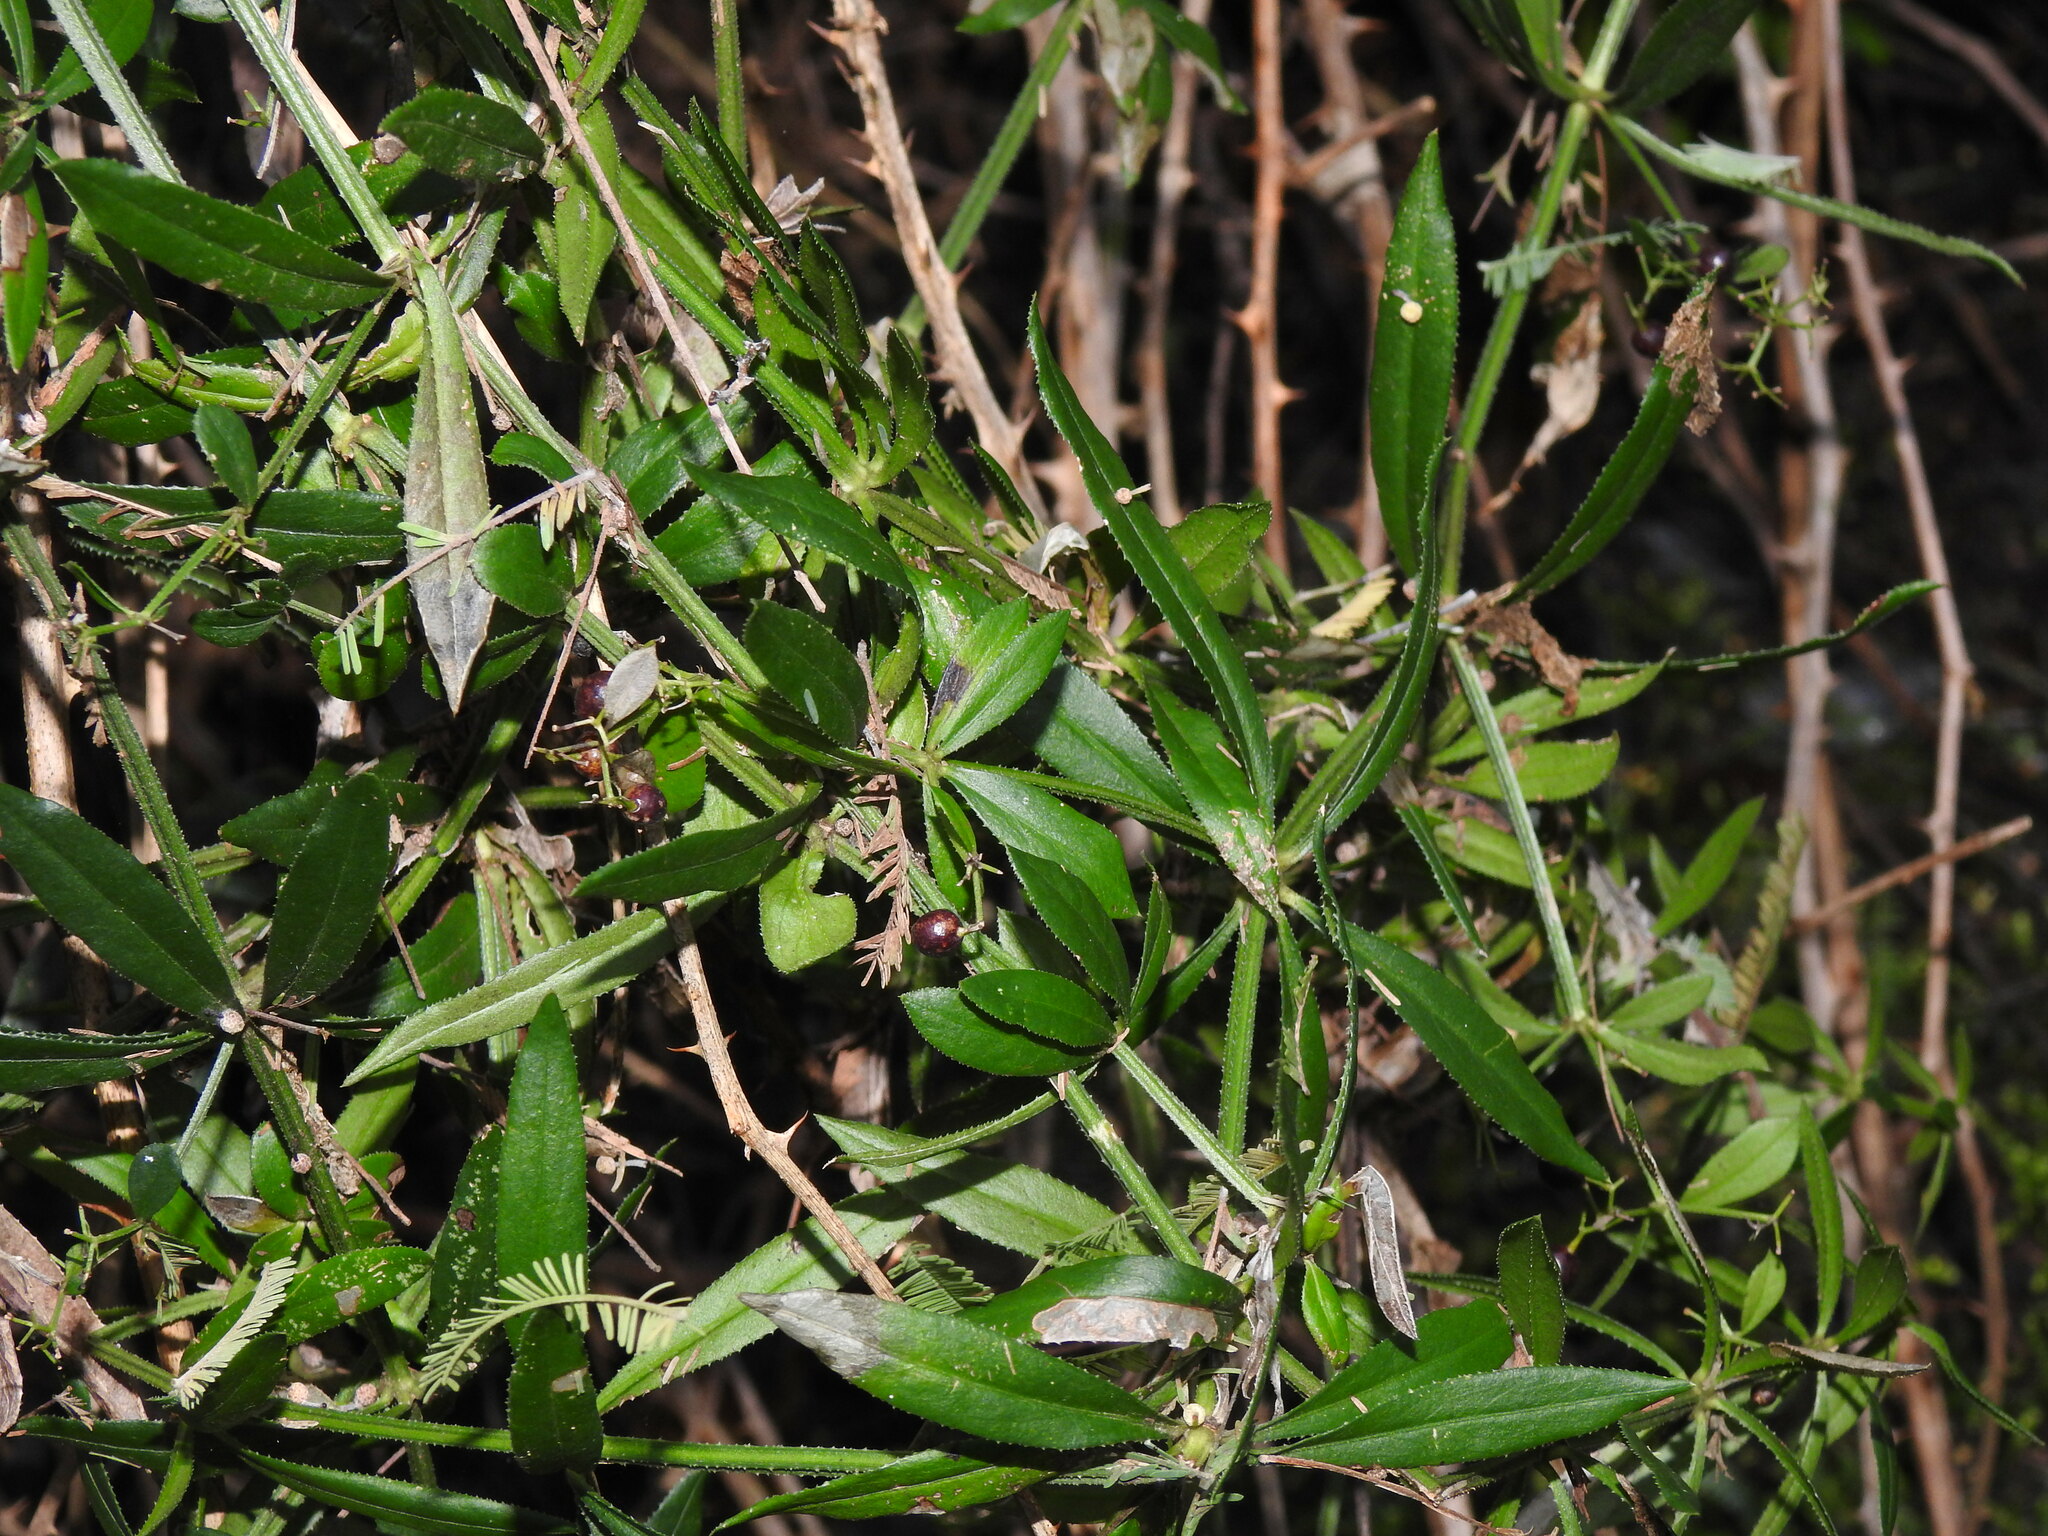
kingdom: Plantae
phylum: Tracheophyta
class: Magnoliopsida
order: Gentianales
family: Rubiaceae
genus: Rubia
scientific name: Rubia peregrina
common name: Wild madder
